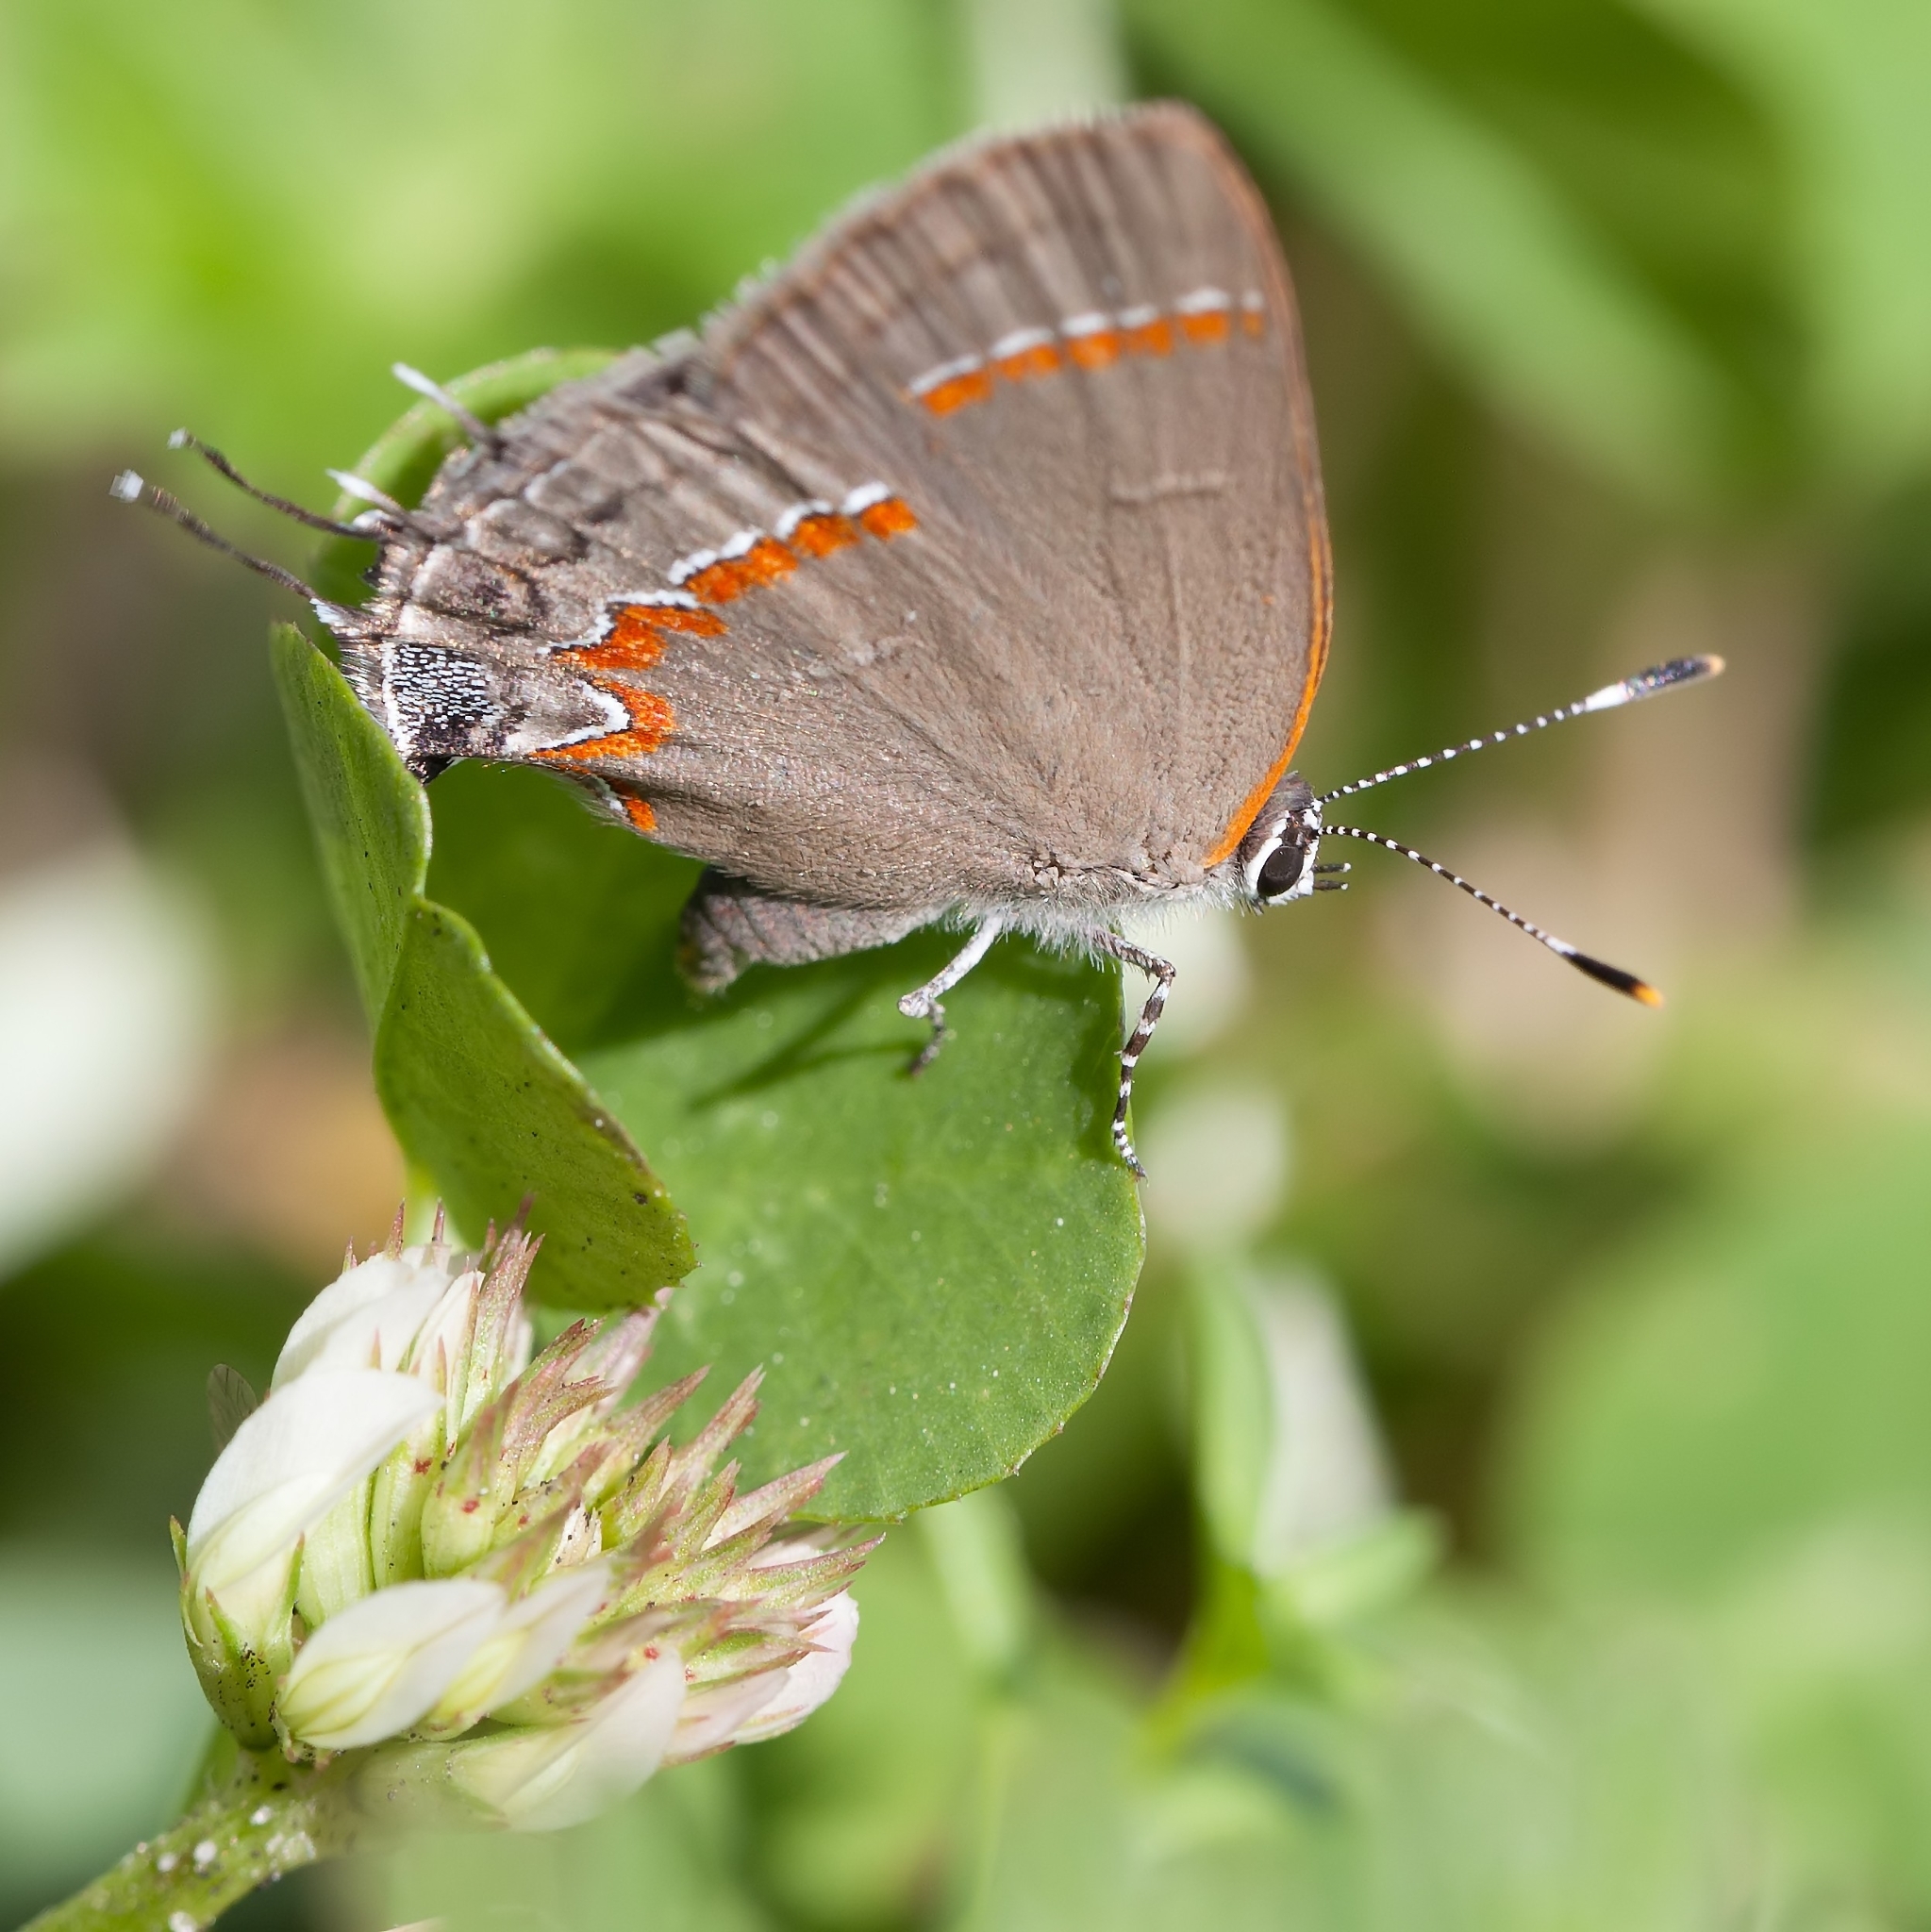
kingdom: Animalia
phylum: Arthropoda
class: Insecta
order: Lepidoptera
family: Lycaenidae
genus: Calycopis
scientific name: Calycopis cecrops
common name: Red-banded hairstreak
